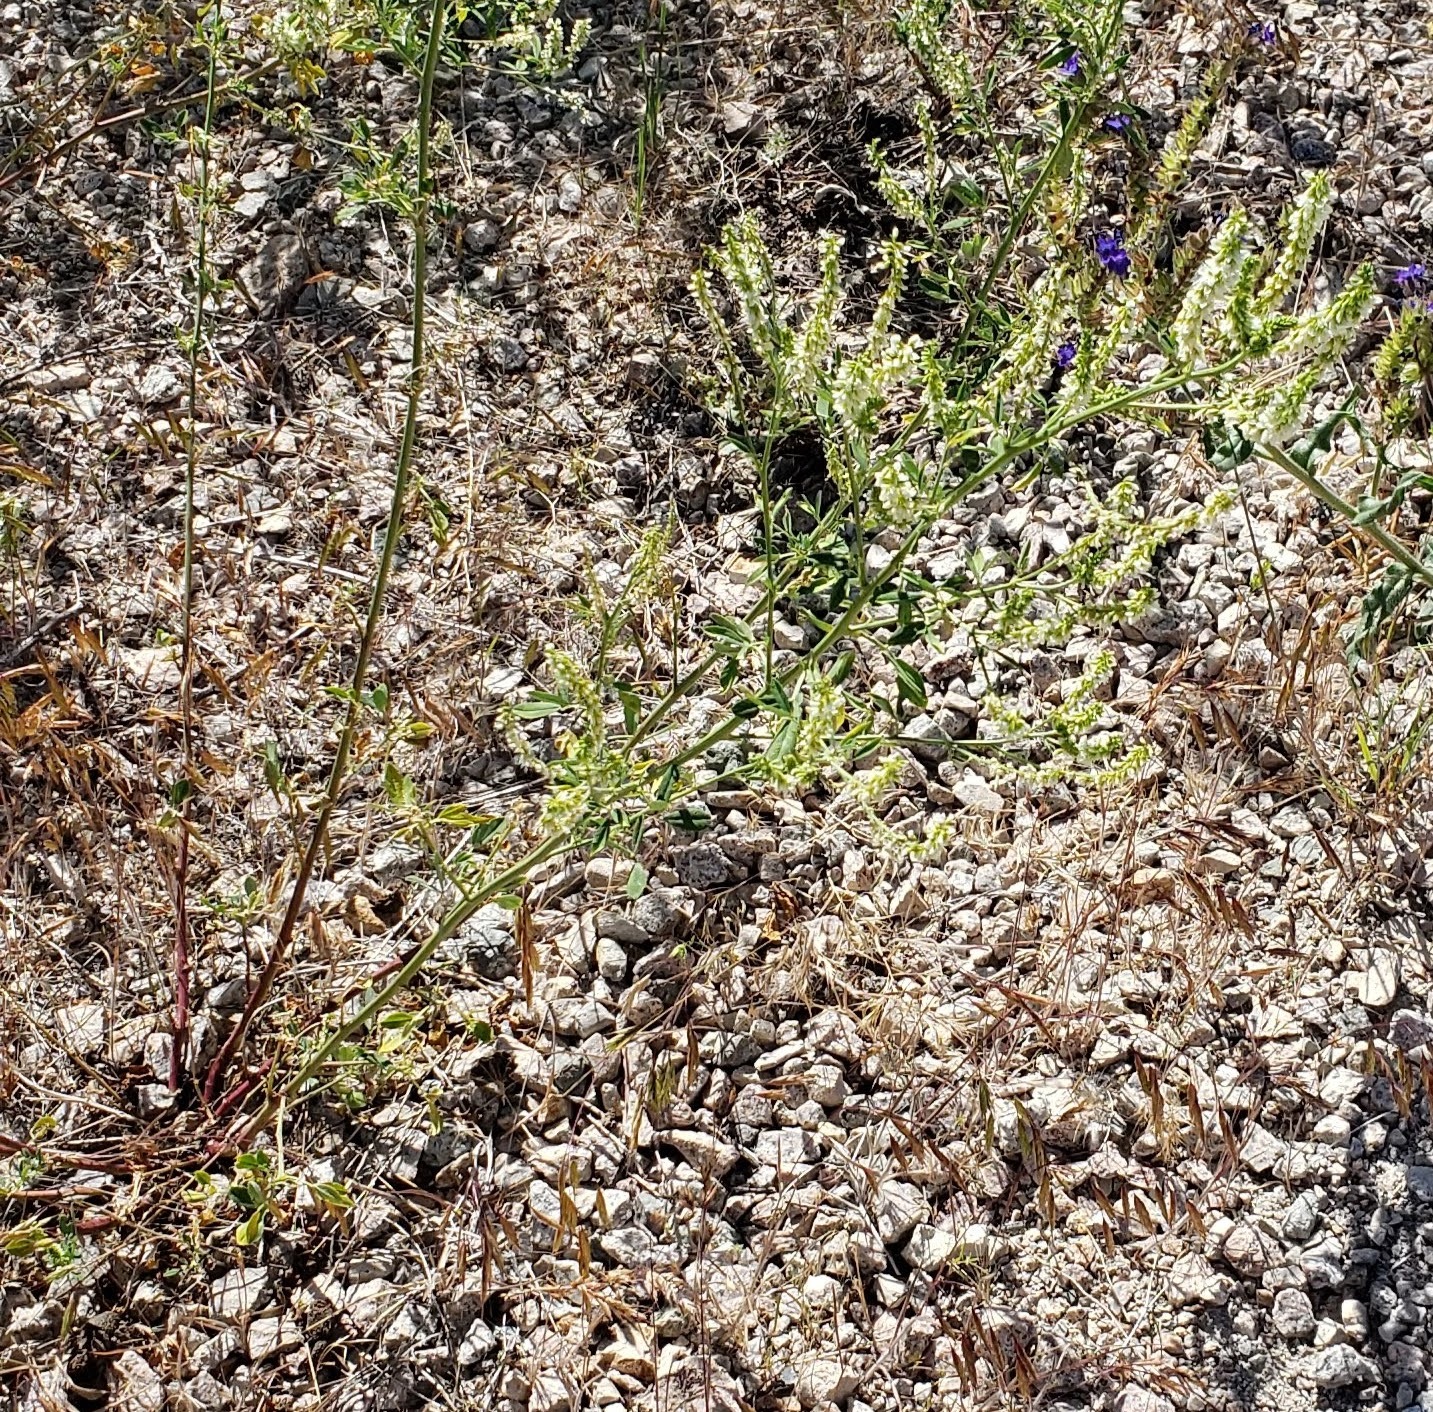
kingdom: Plantae
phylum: Tracheophyta
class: Magnoliopsida
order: Fabales
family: Fabaceae
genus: Melilotus
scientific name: Melilotus albus
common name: White melilot
